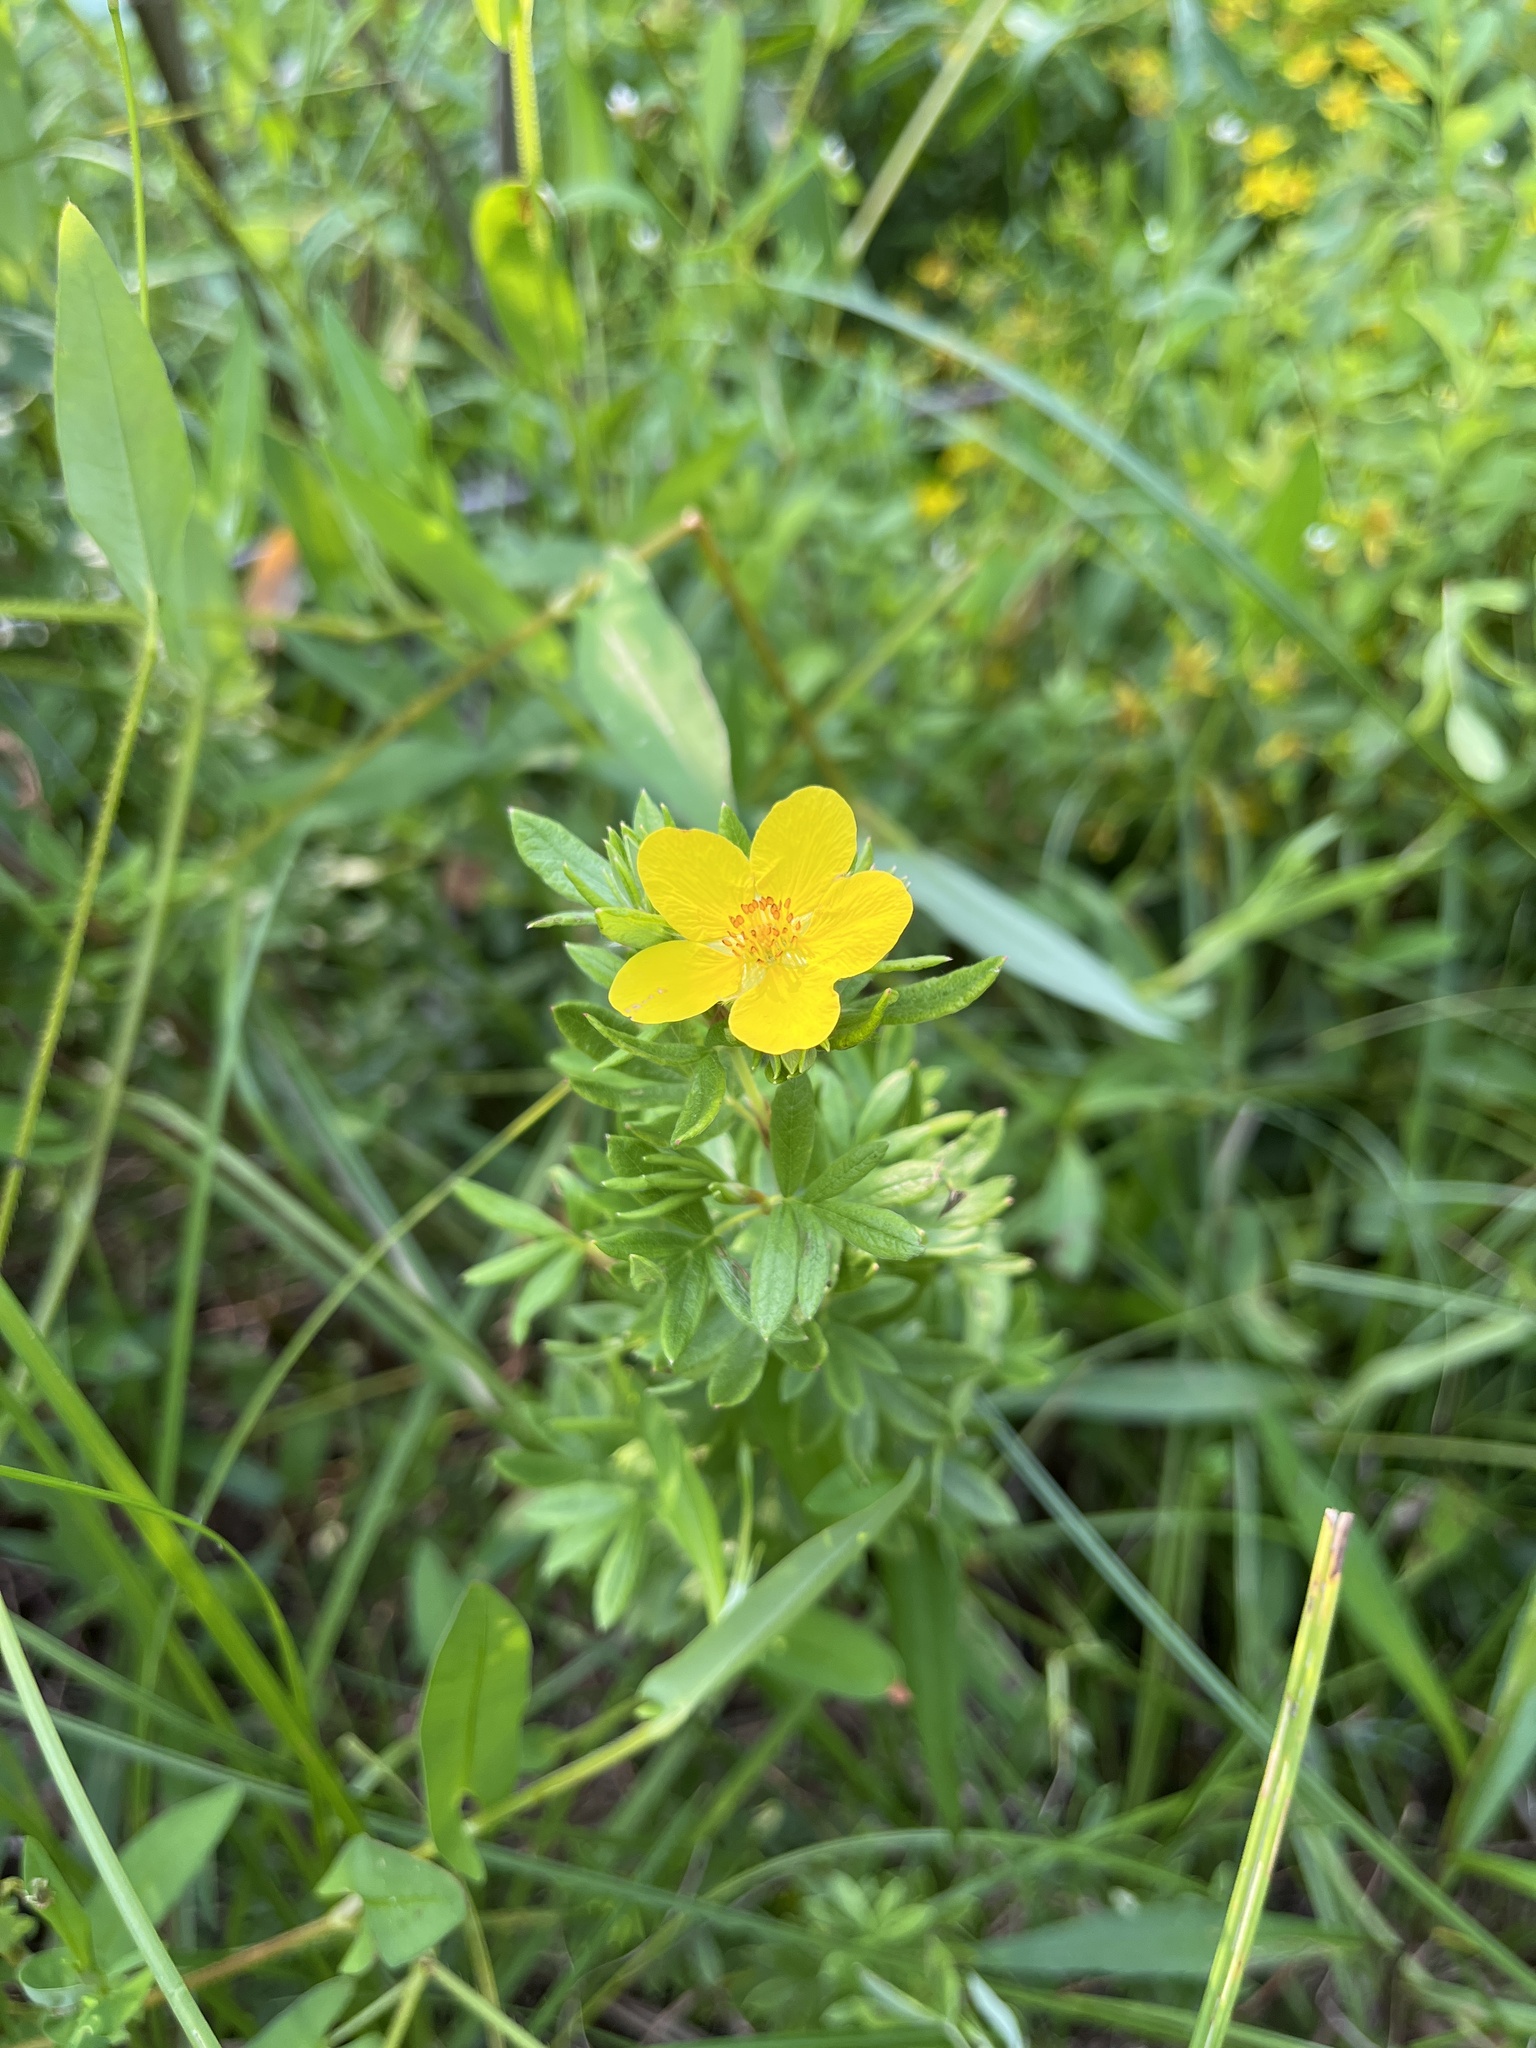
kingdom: Plantae
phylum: Tracheophyta
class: Magnoliopsida
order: Rosales
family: Rosaceae
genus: Dasiphora
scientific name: Dasiphora fruticosa
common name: Shrubby cinquefoil
